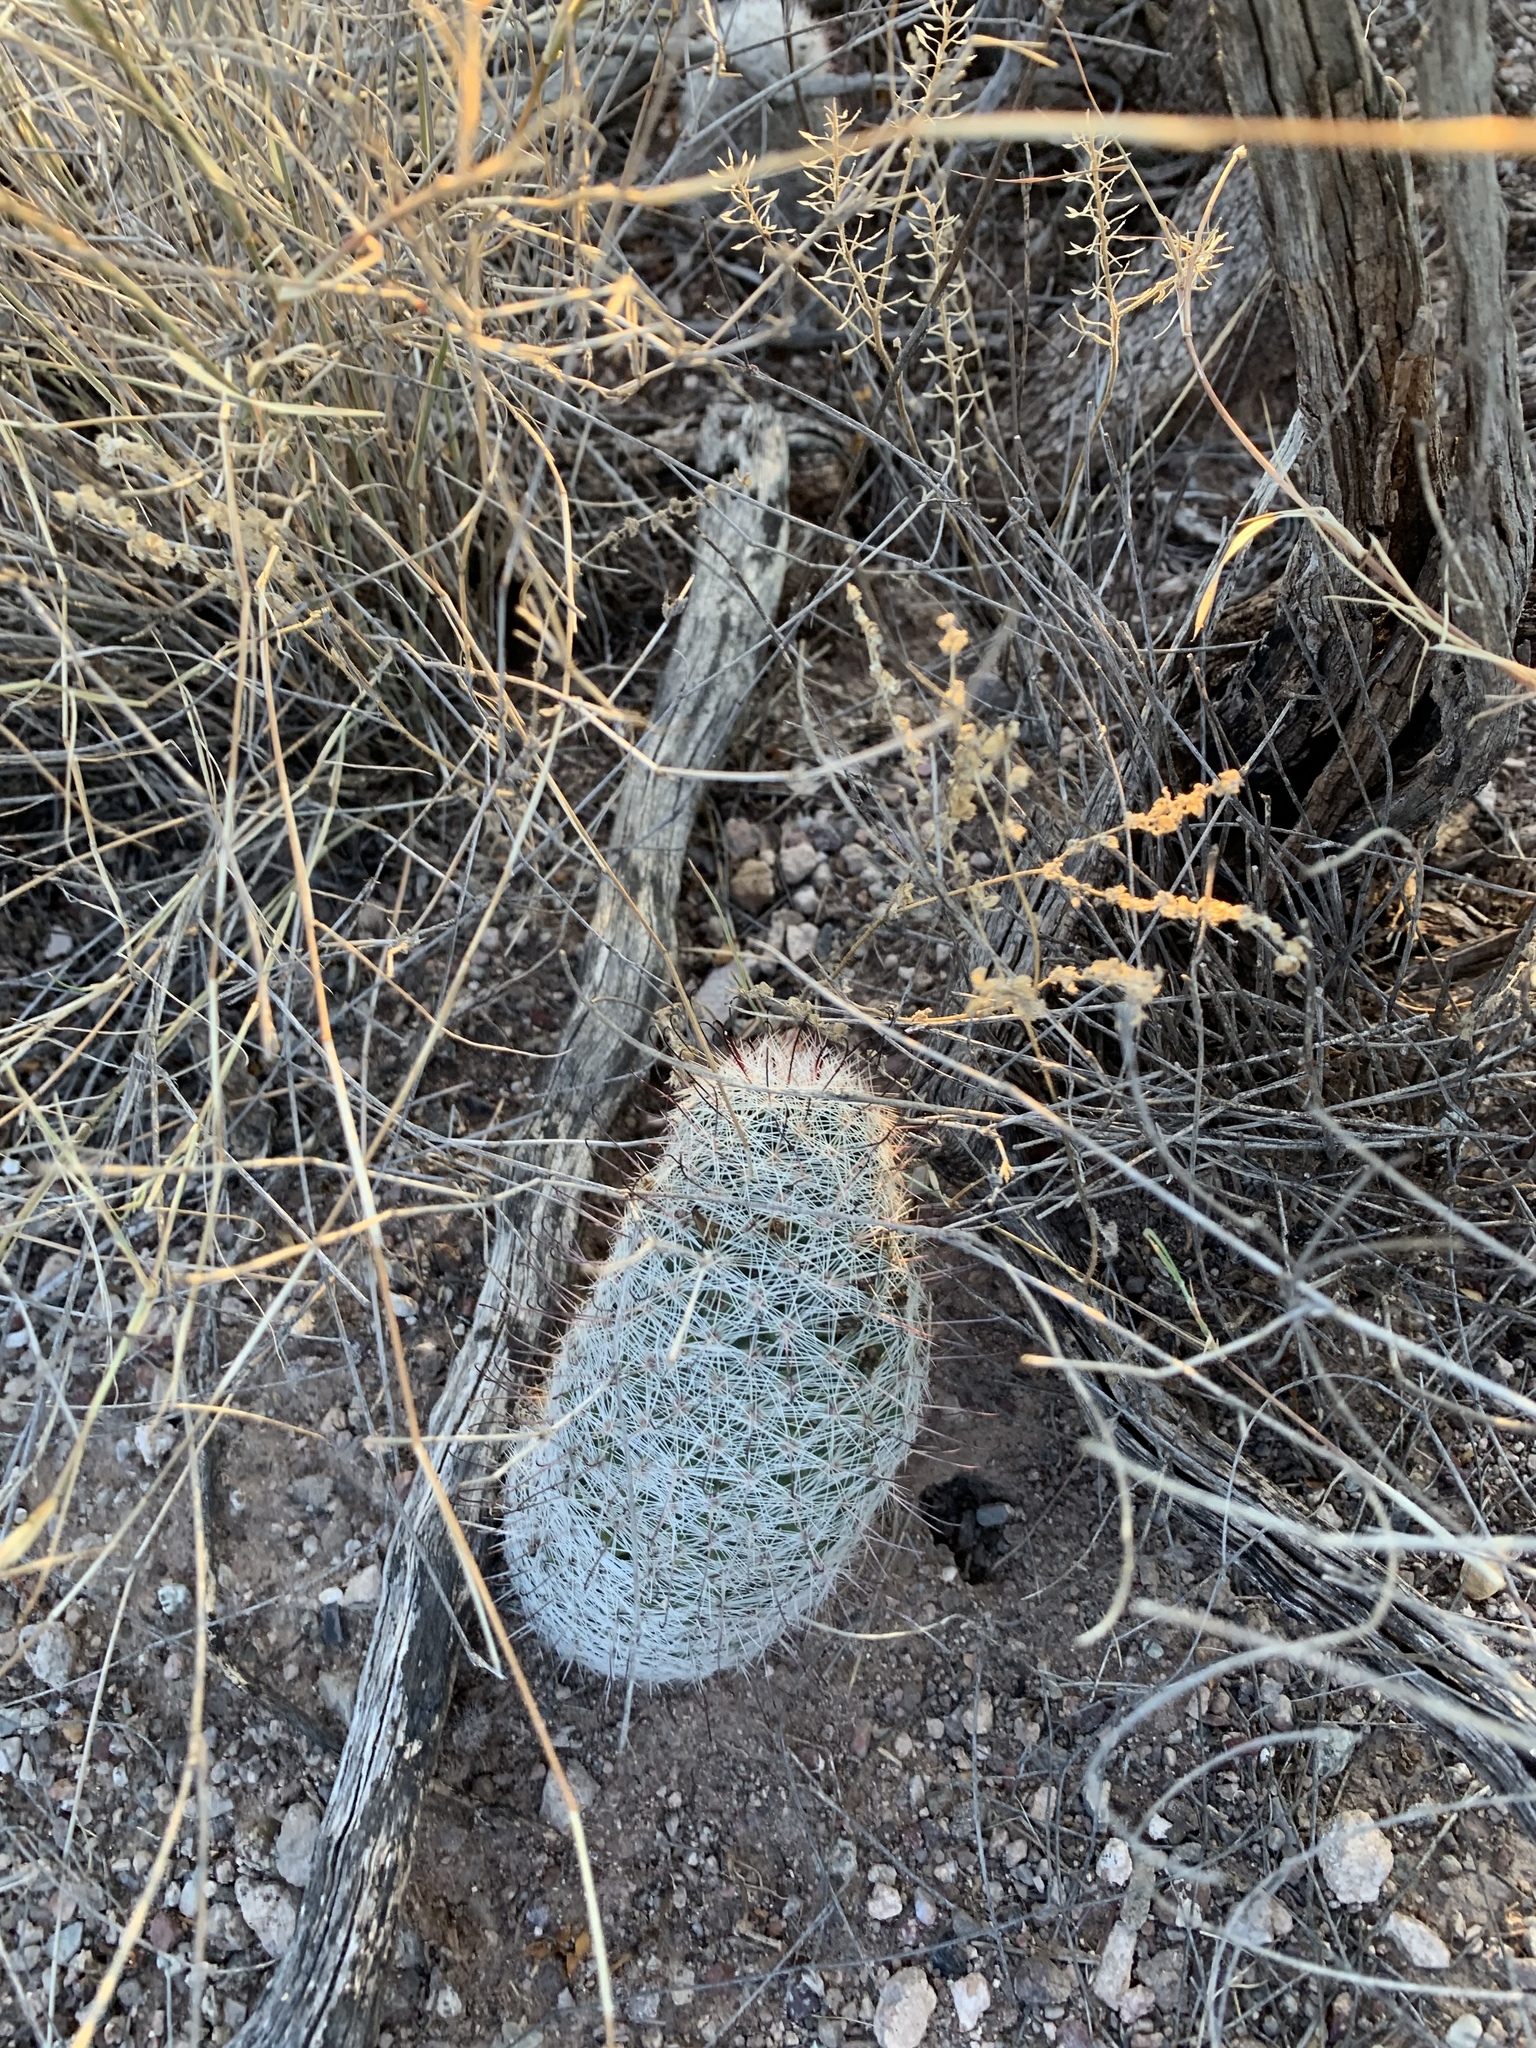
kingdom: Plantae
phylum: Tracheophyta
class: Magnoliopsida
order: Caryophyllales
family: Cactaceae
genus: Cochemiea
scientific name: Cochemiea grahamii
